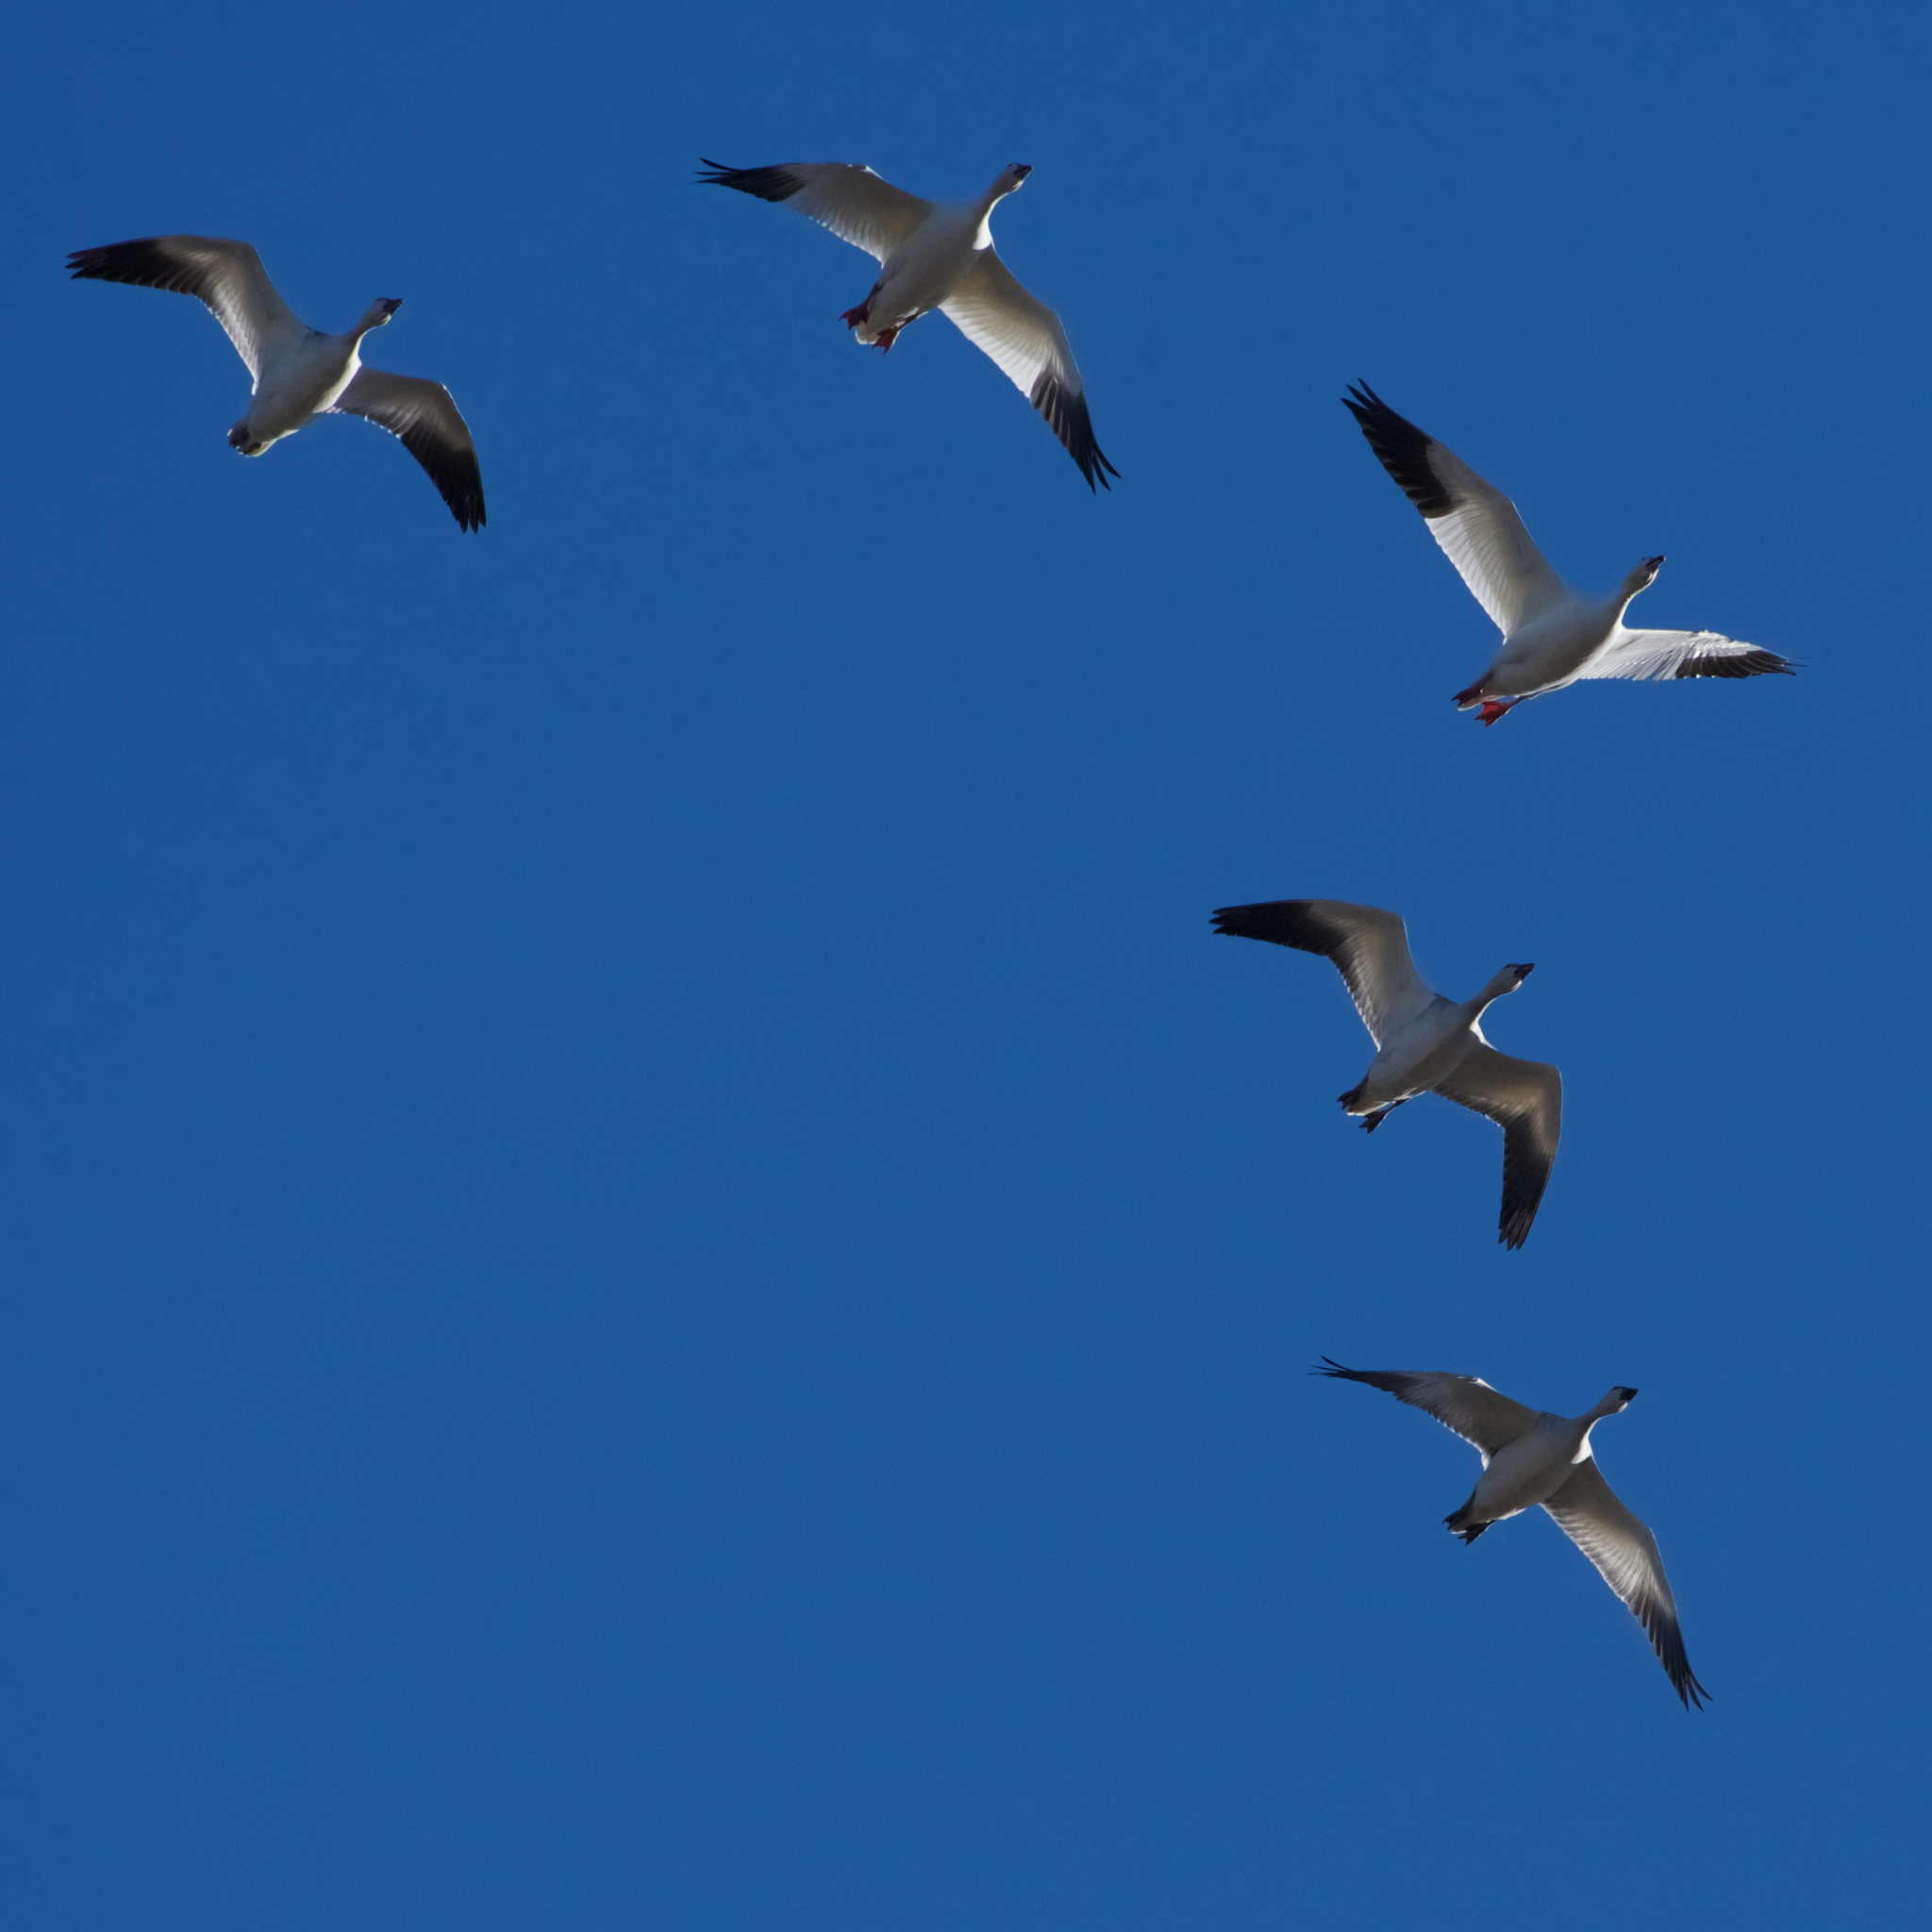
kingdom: Animalia
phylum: Chordata
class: Aves
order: Anseriformes
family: Anatidae
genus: Anser
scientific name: Anser caerulescens
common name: Snow goose
